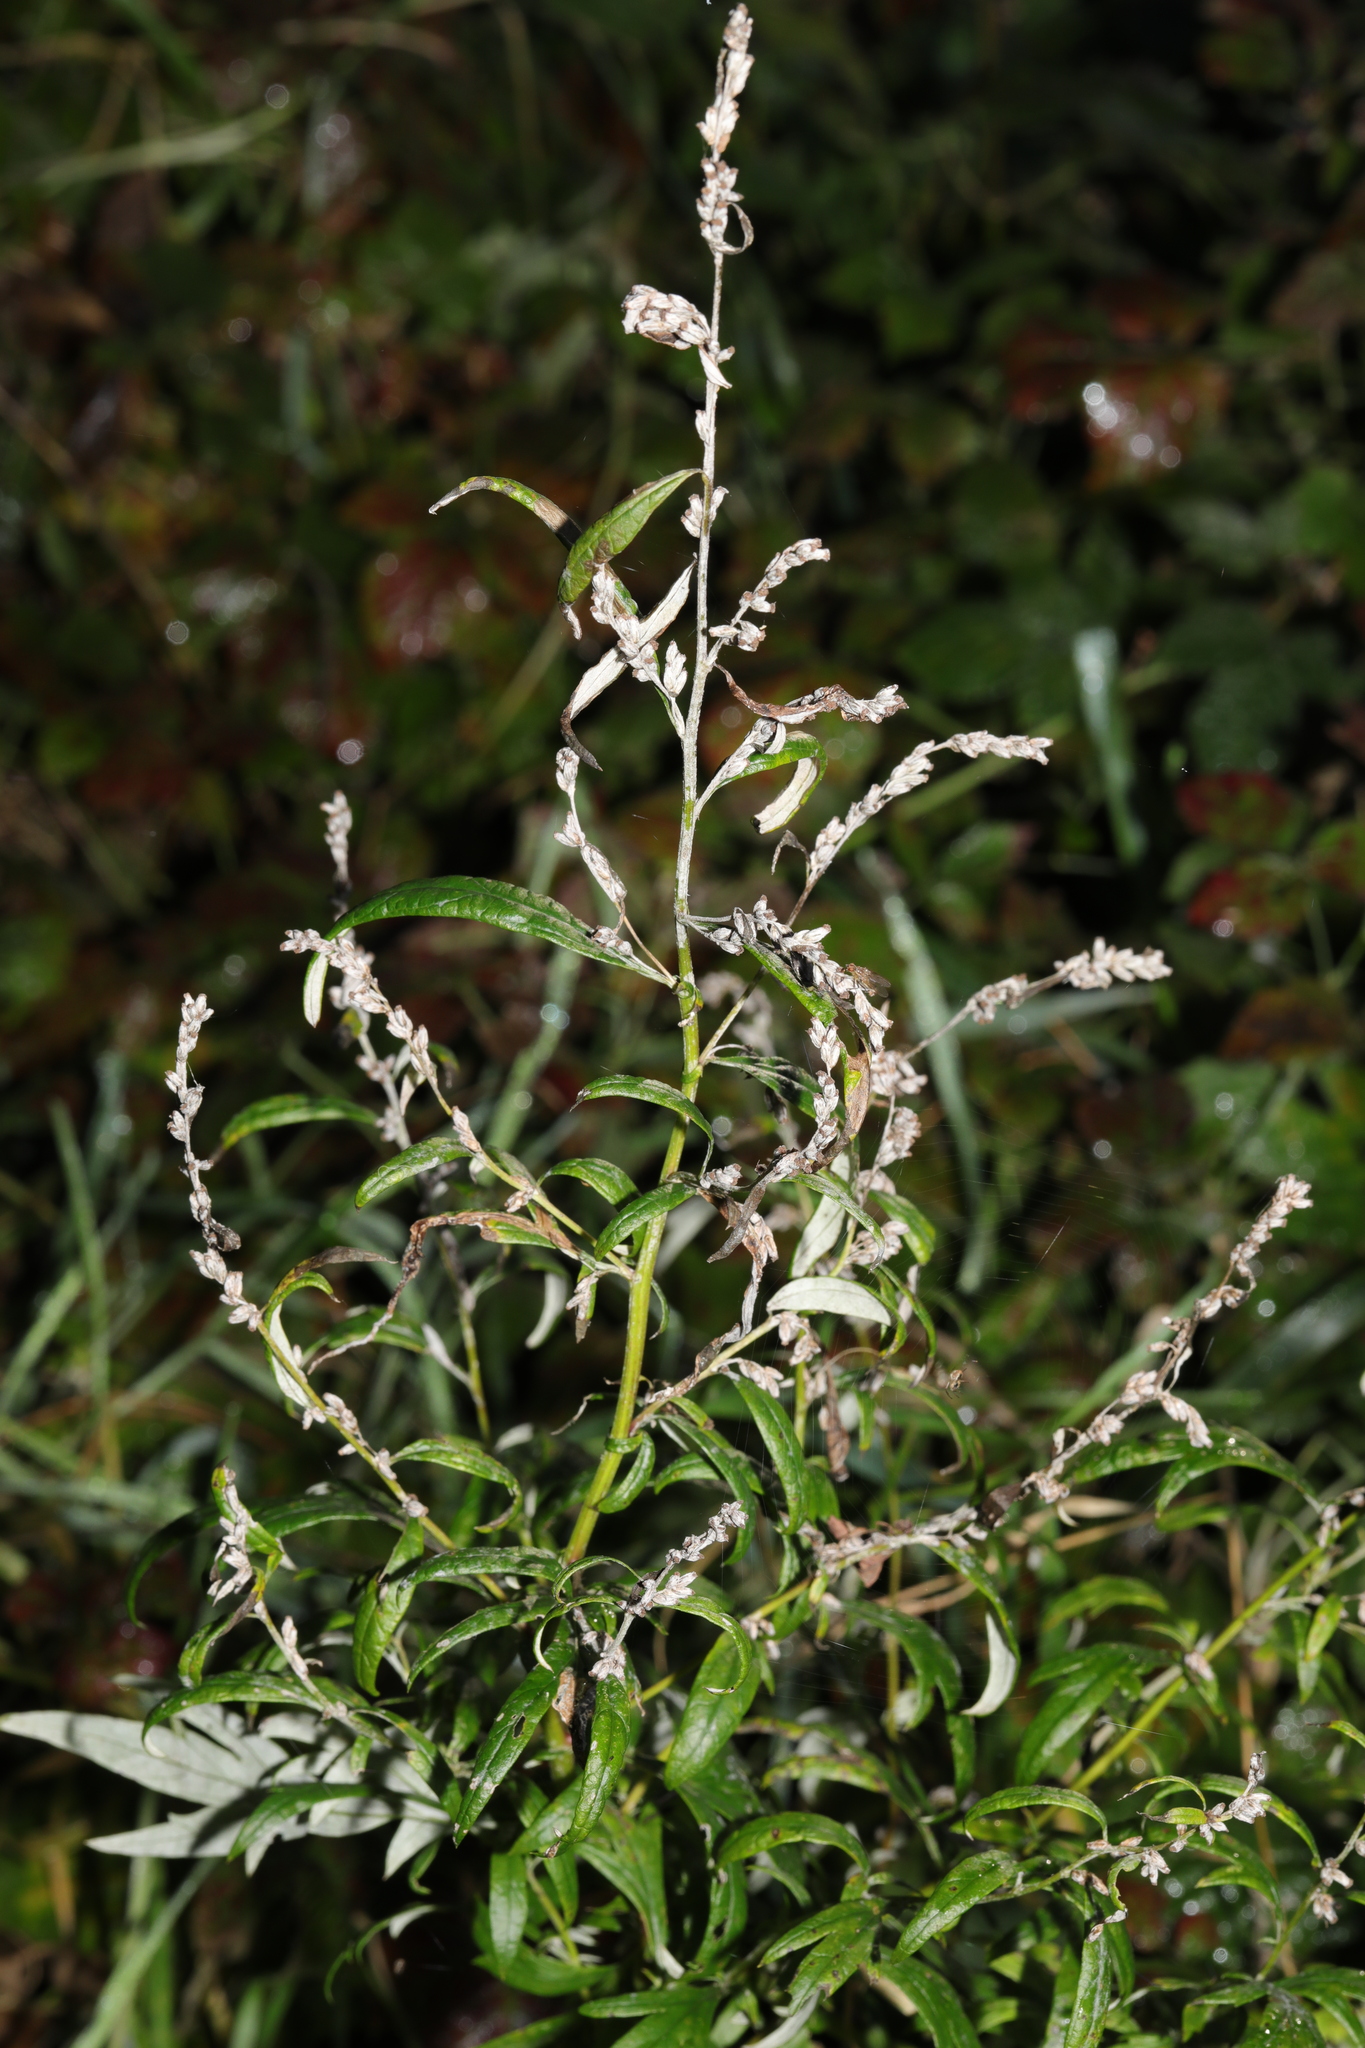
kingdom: Plantae
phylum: Tracheophyta
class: Magnoliopsida
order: Asterales
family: Asteraceae
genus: Artemisia
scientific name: Artemisia vulgaris
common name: Mugwort
